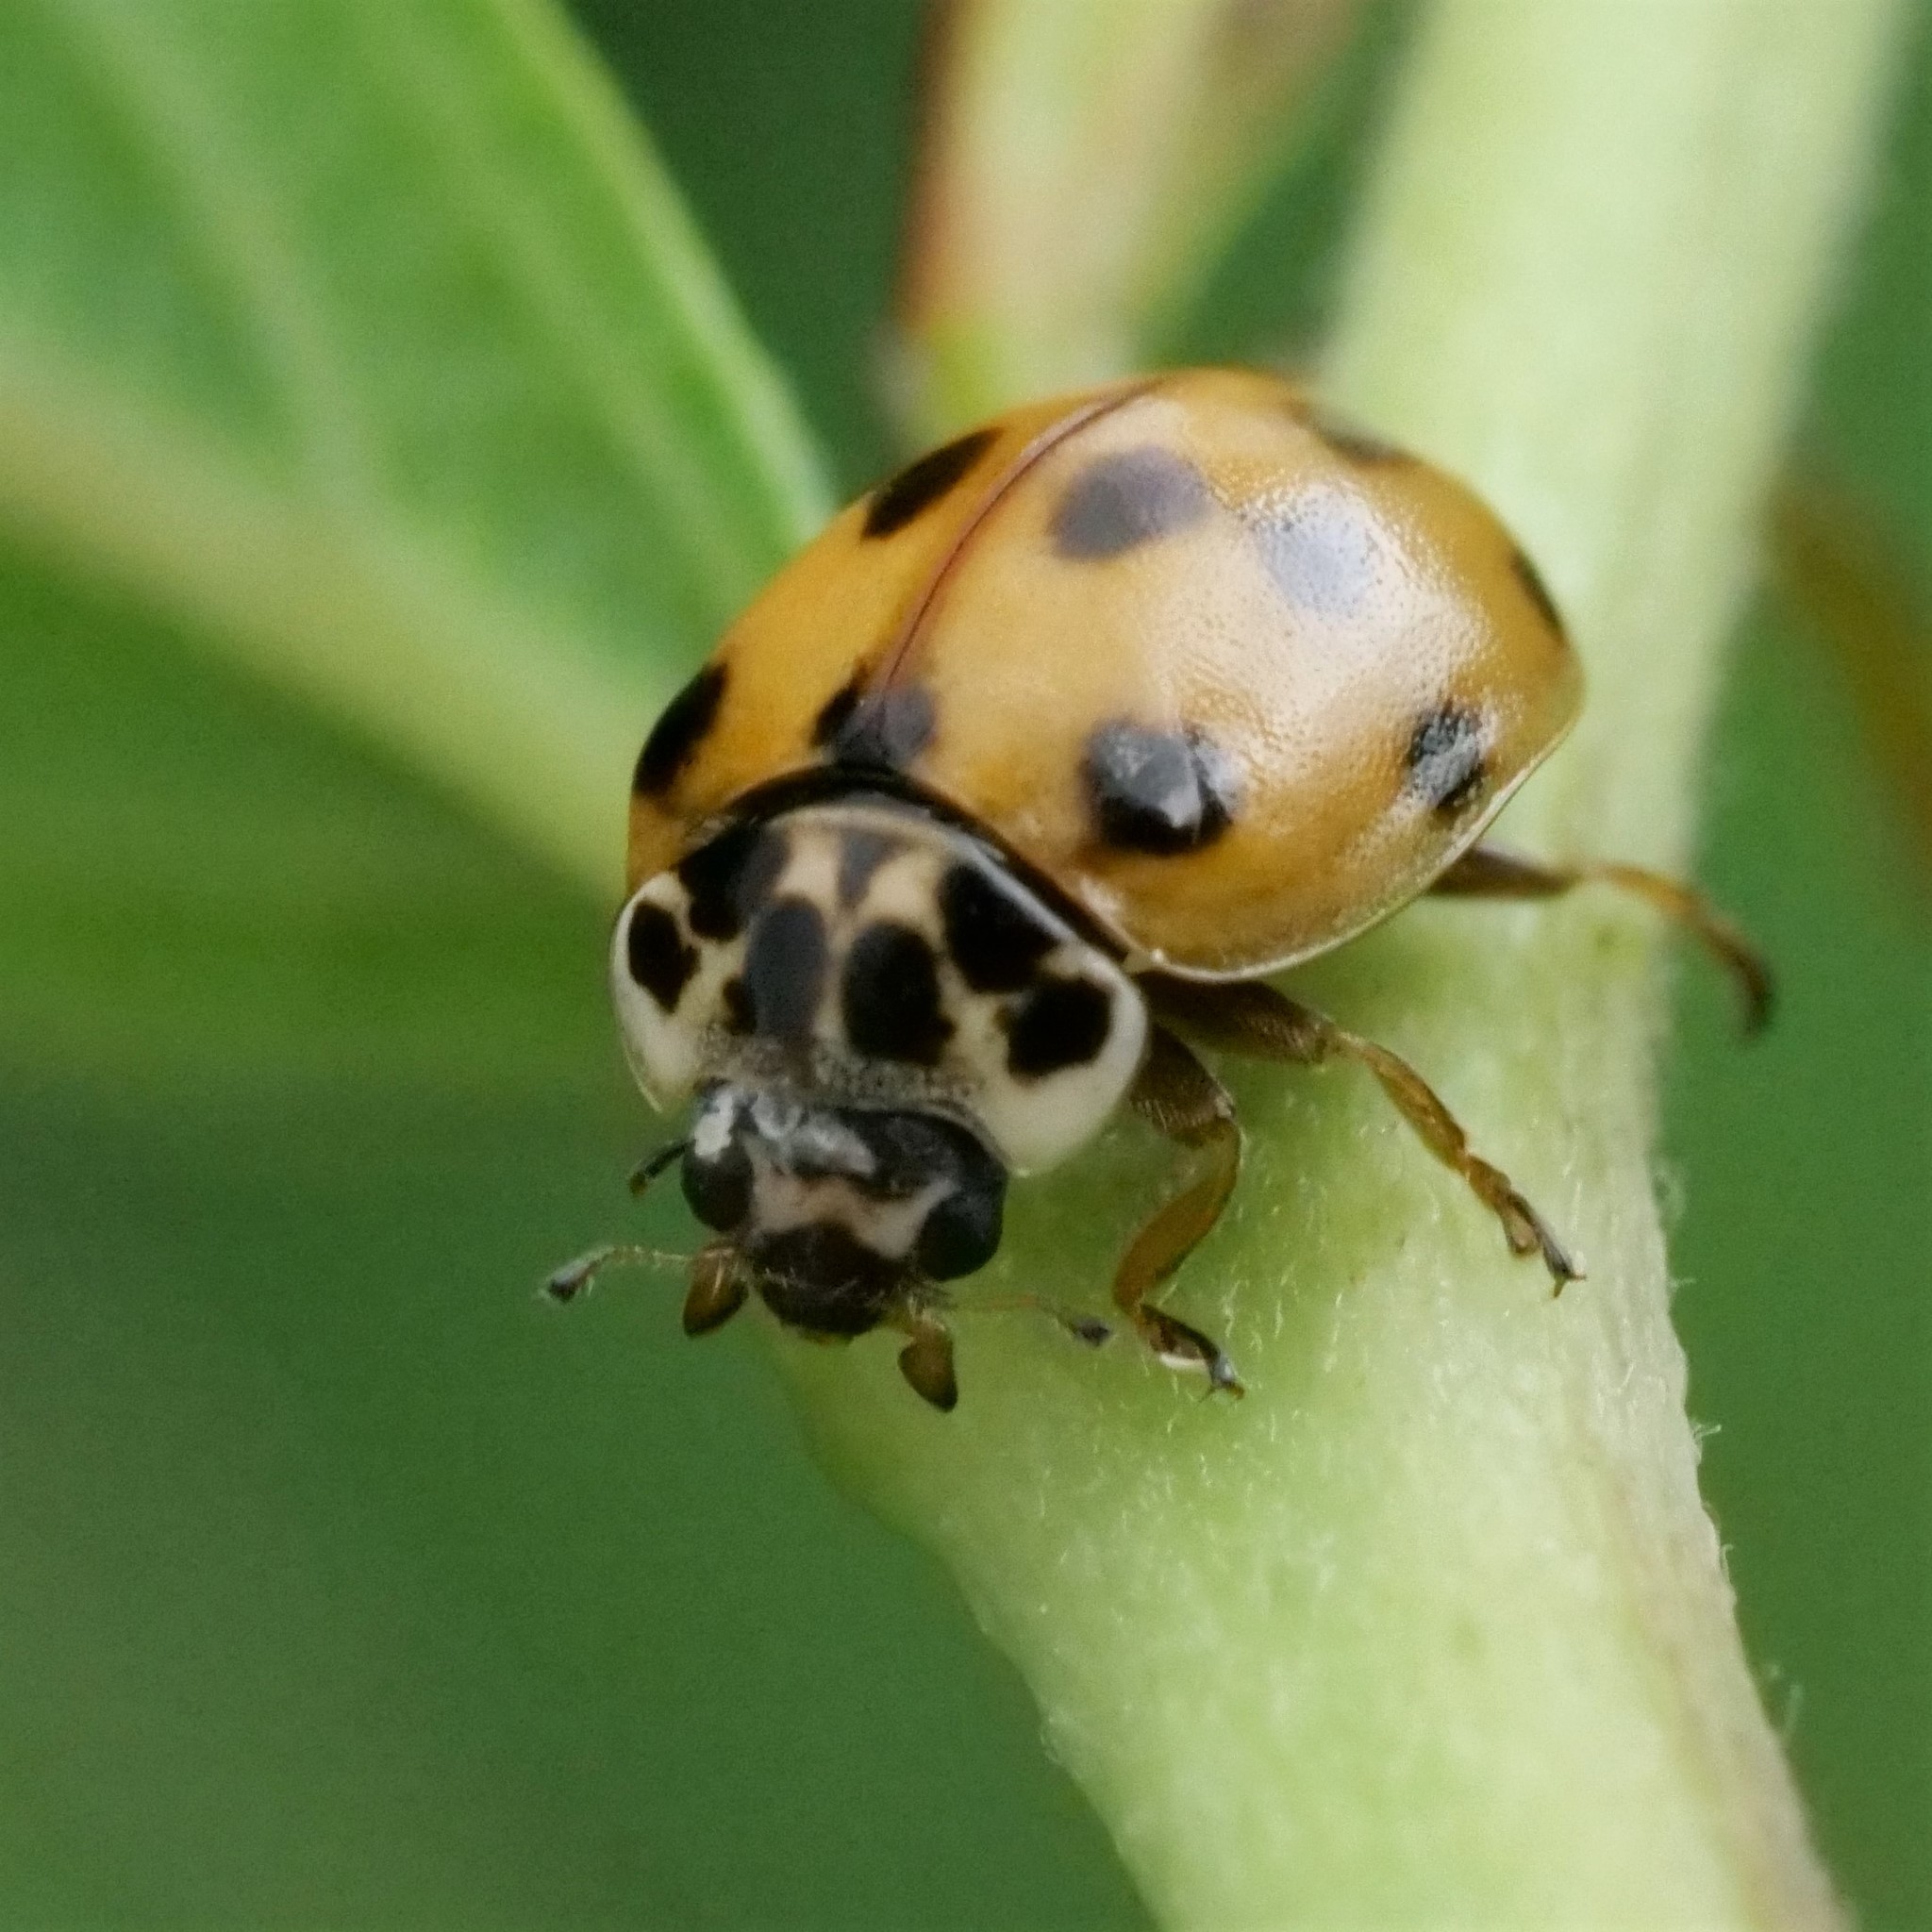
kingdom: Animalia
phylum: Arthropoda
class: Insecta
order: Coleoptera
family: Coccinellidae
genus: Adalia
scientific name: Adalia decempunctata
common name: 10-spot ladybird
